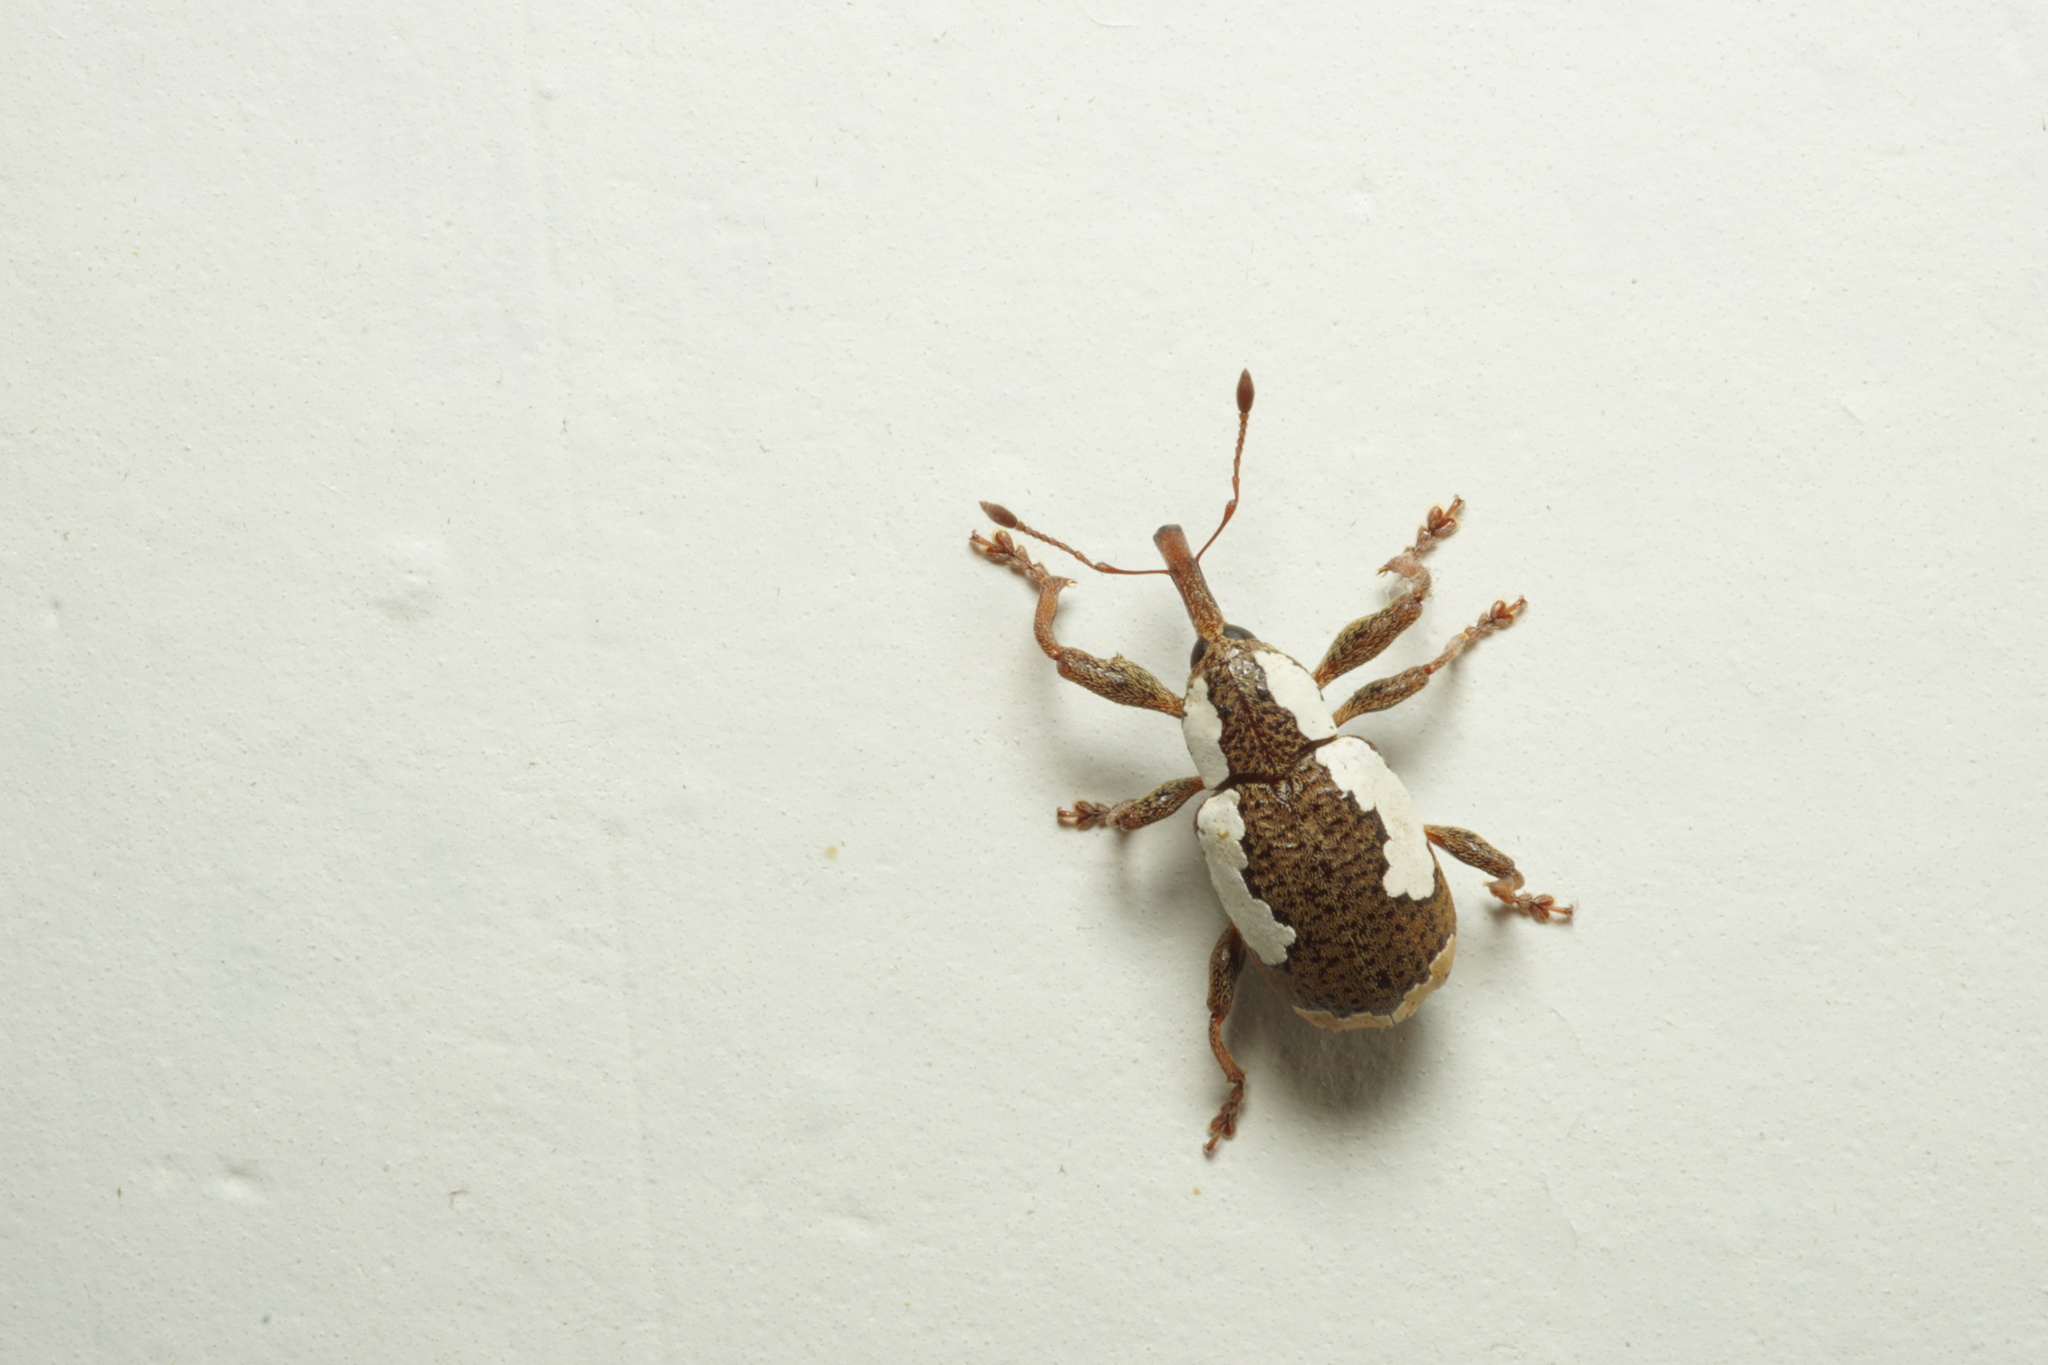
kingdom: Animalia
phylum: Arthropoda
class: Insecta
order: Coleoptera
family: Curculionidae
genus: Heilipus
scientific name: Heilipus draco
